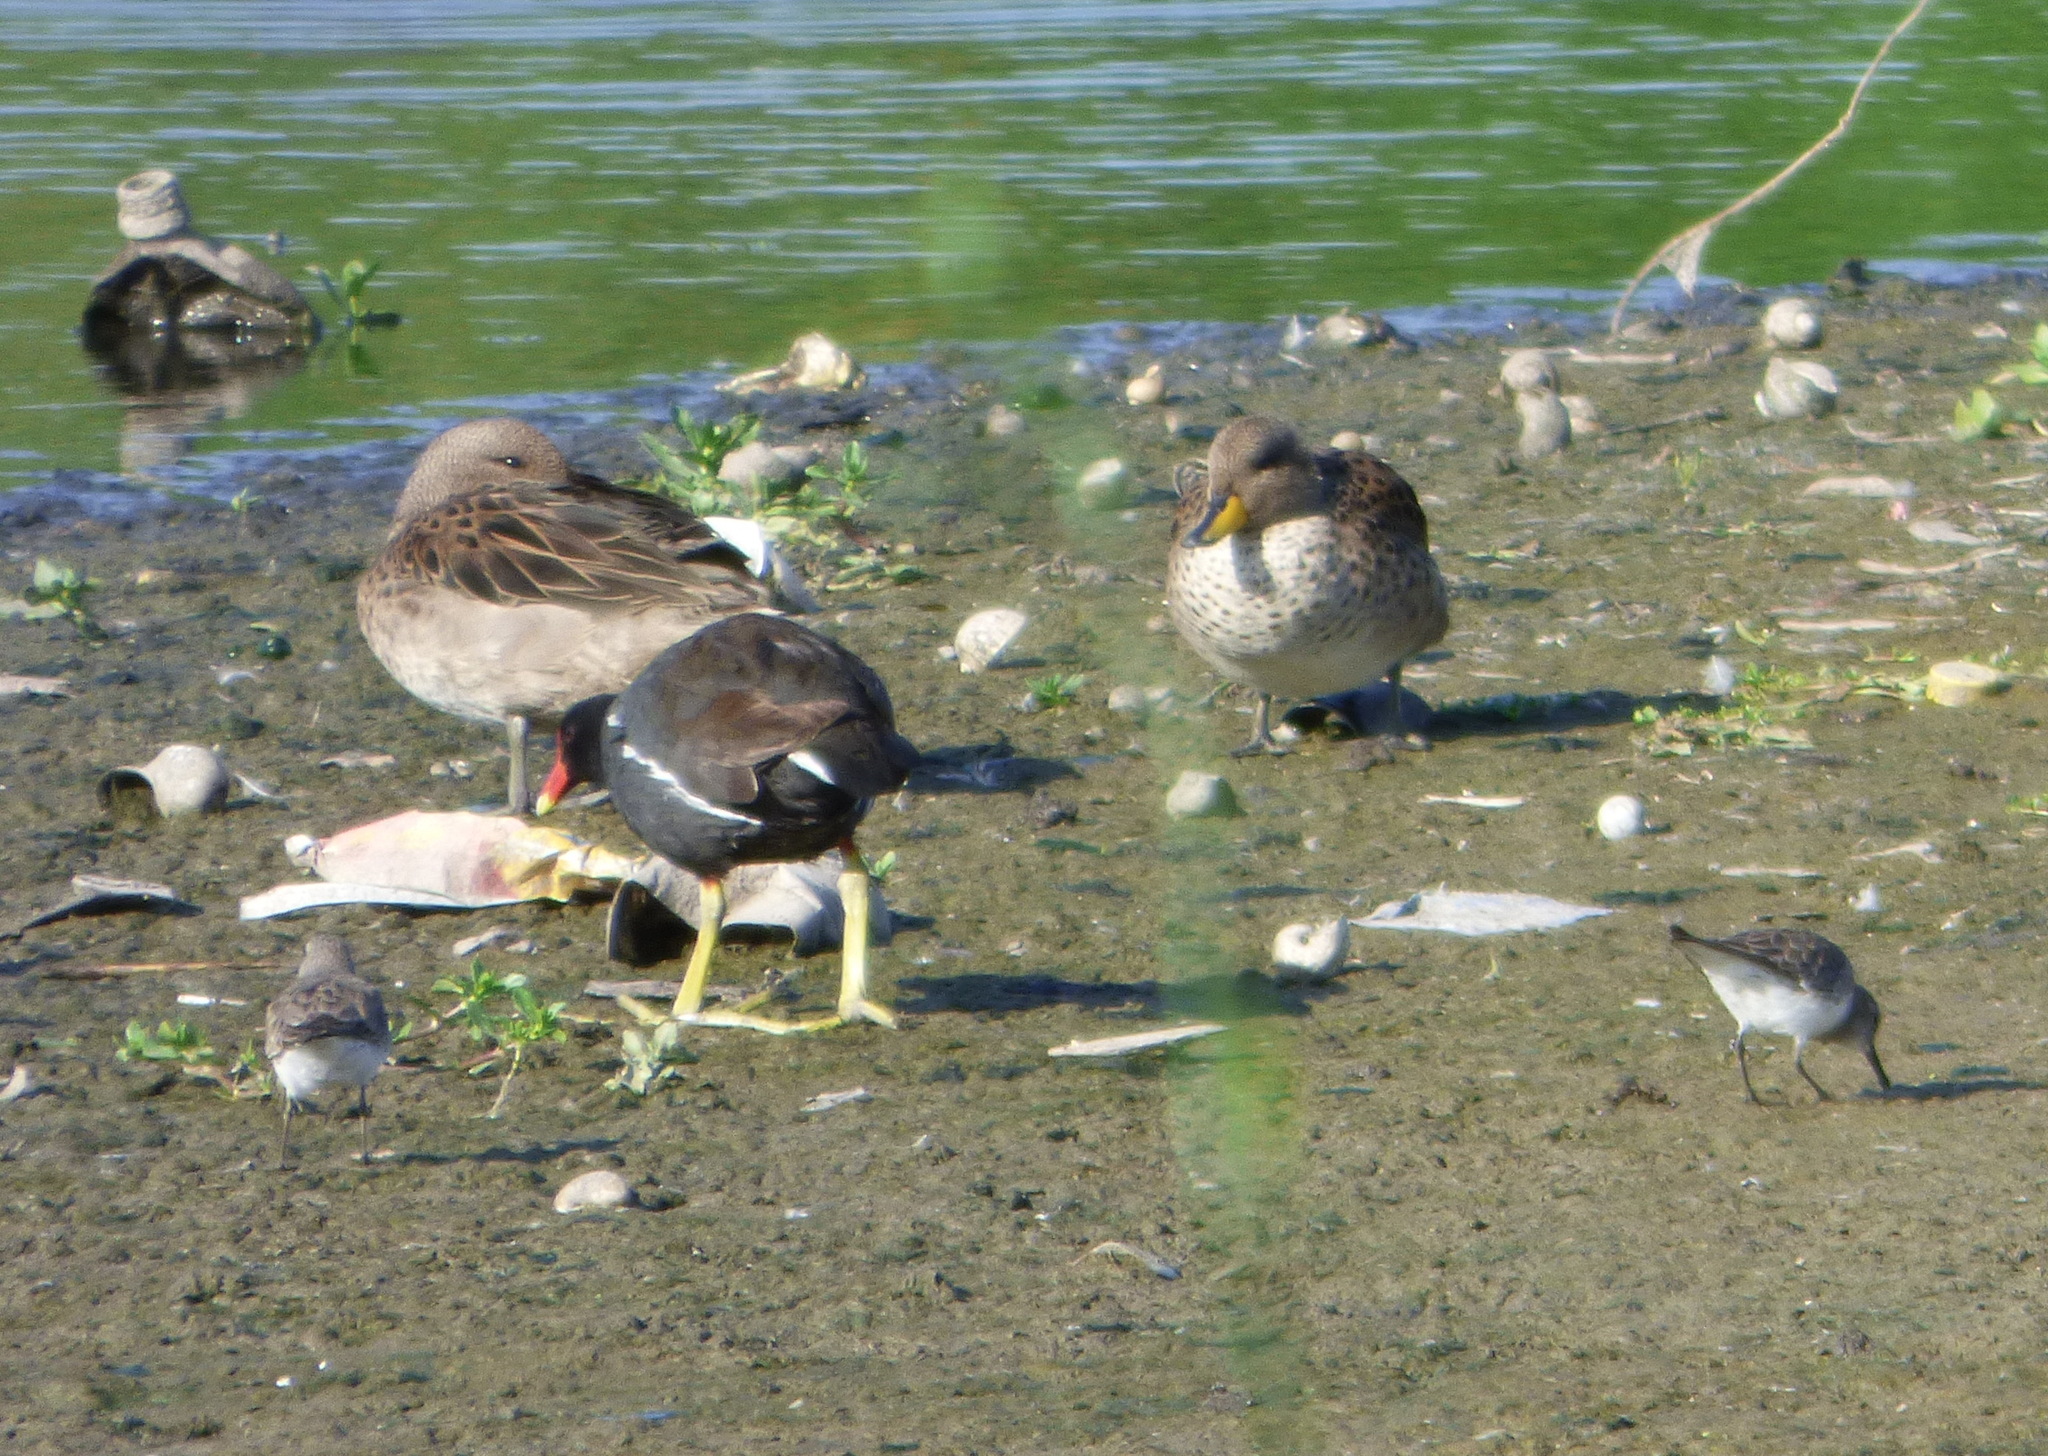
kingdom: Animalia
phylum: Chordata
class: Aves
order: Gruiformes
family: Rallidae
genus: Gallinula
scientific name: Gallinula chloropus
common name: Common moorhen
